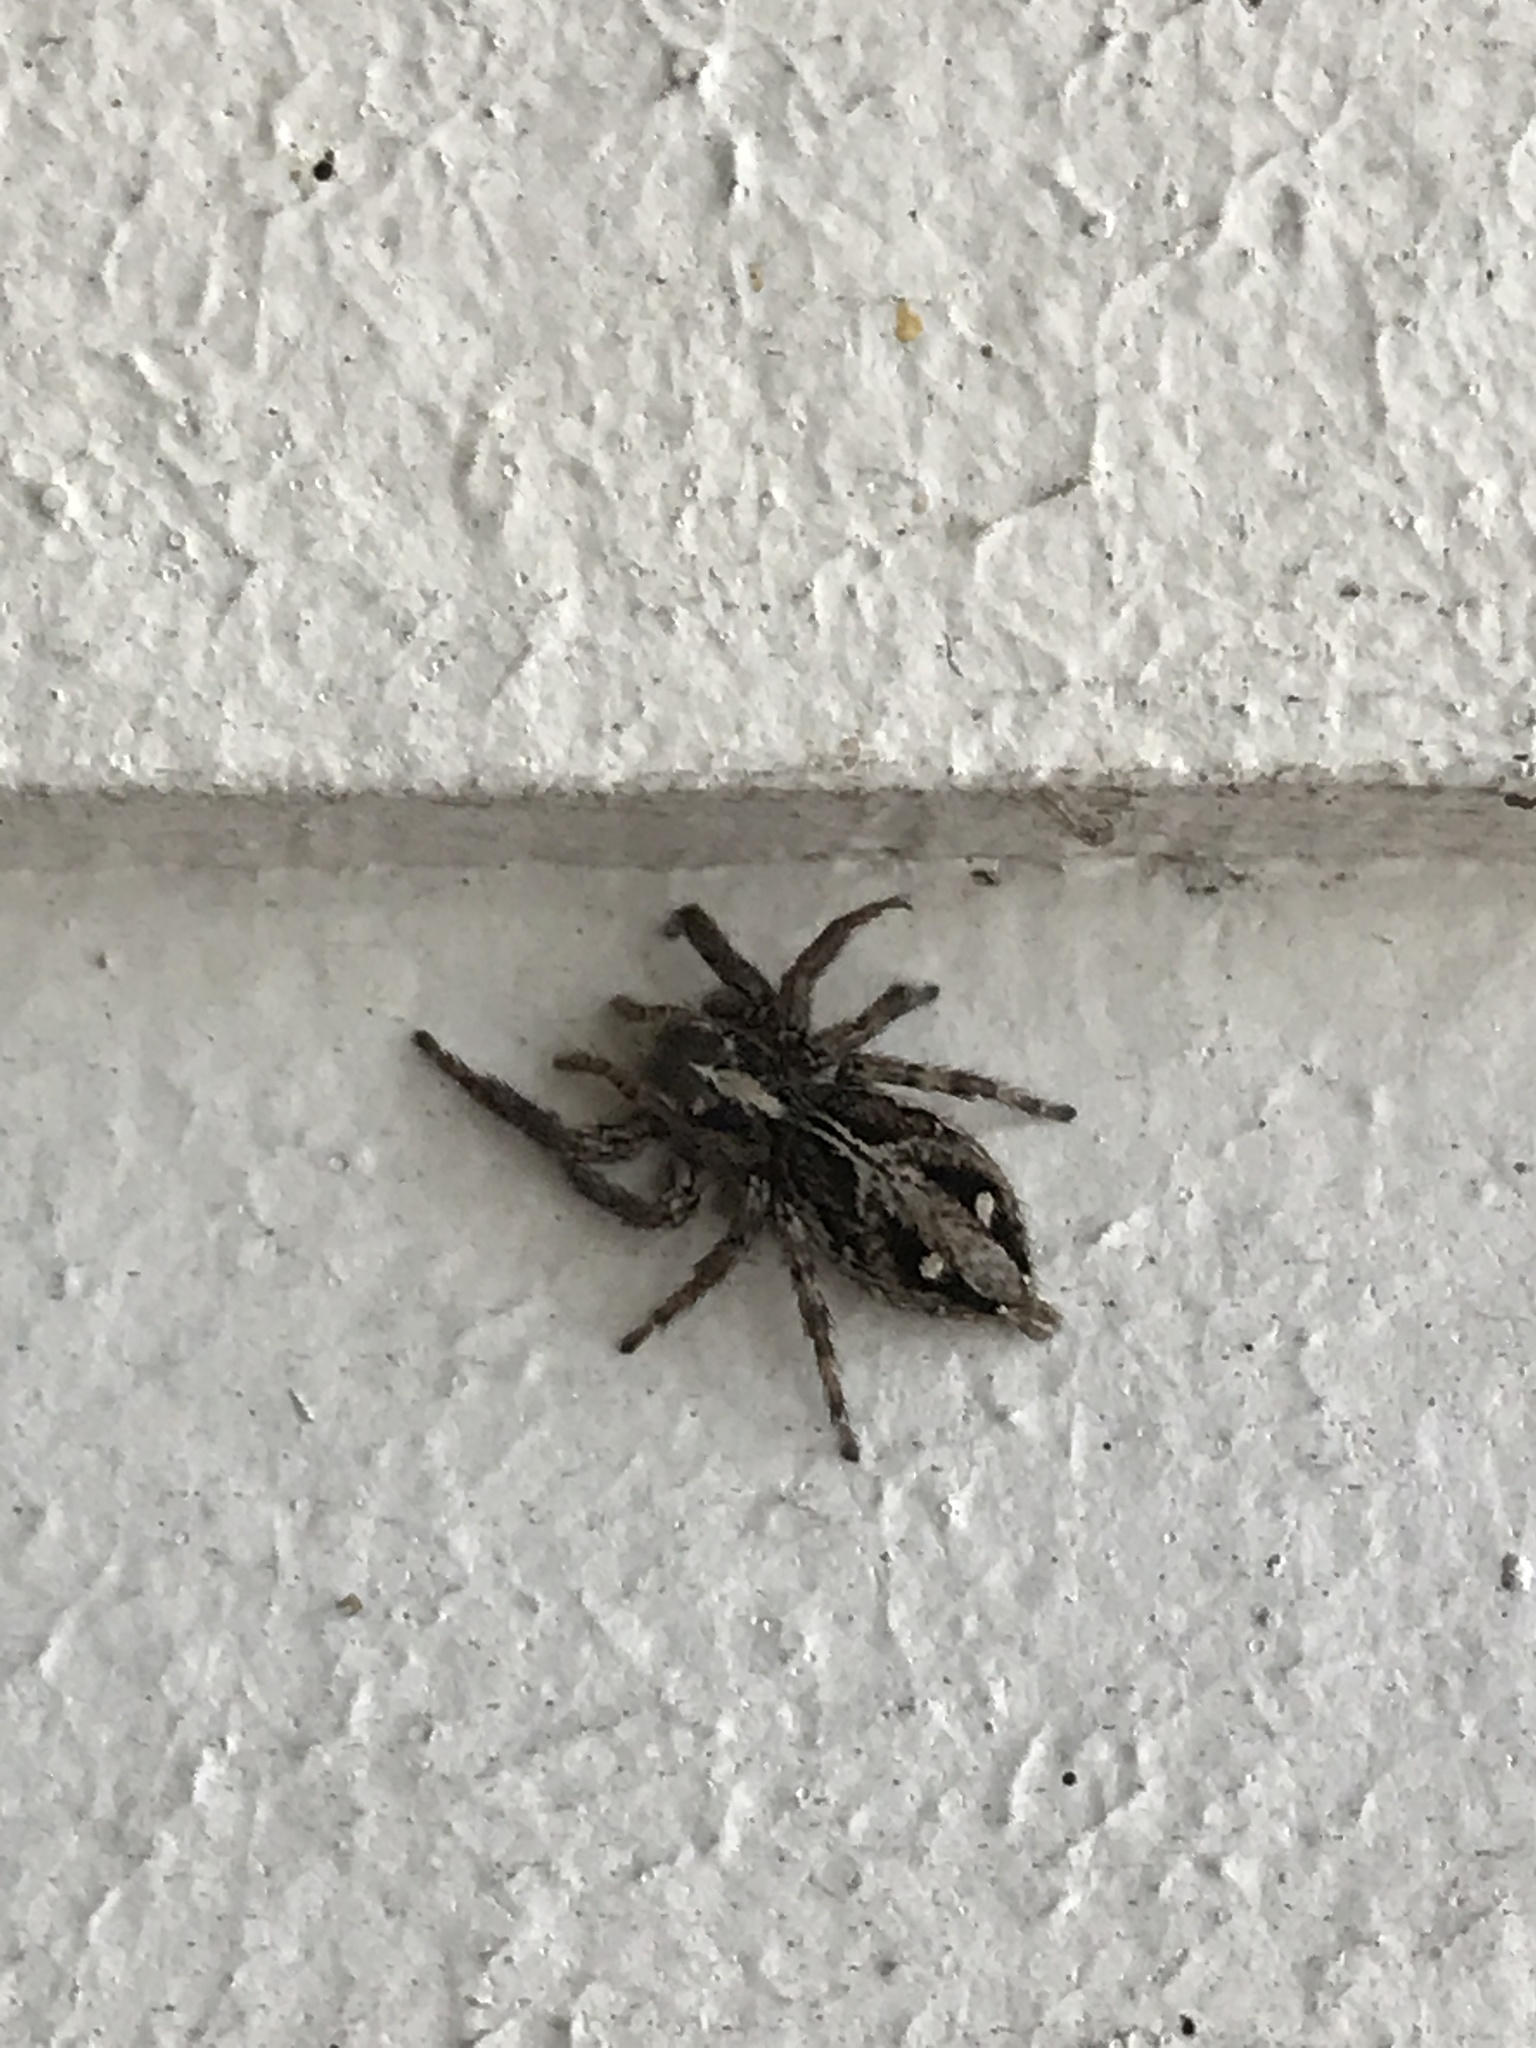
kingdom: Animalia
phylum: Arthropoda
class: Arachnida
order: Araneae
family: Salticidae
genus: Plexippus
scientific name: Plexippus paykulli
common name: Pantropical jumper
